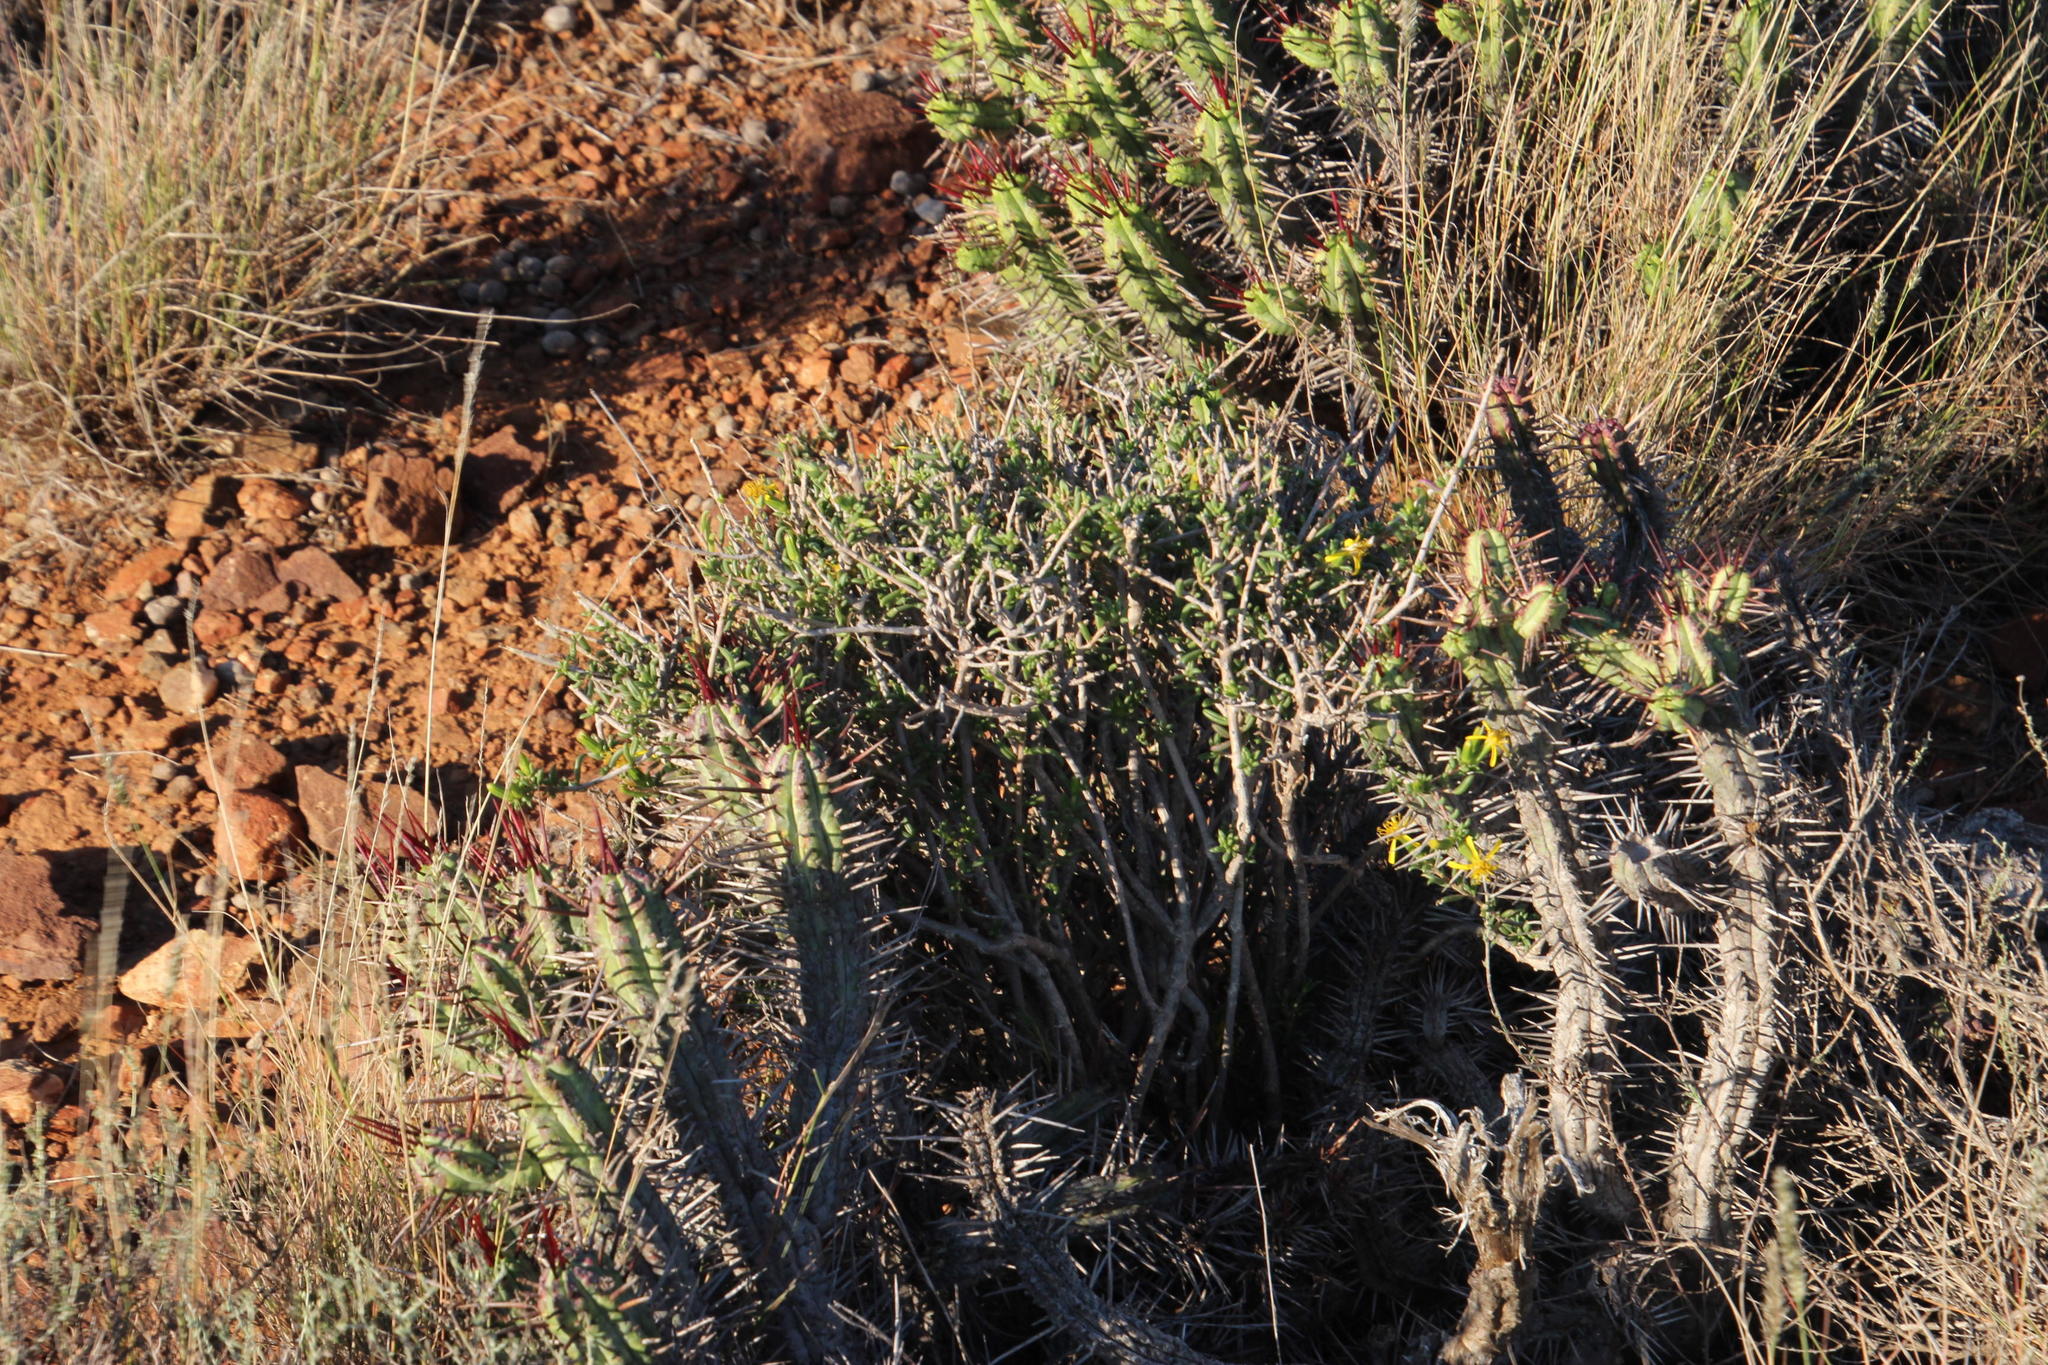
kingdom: Plantae
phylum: Tracheophyta
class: Magnoliopsida
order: Asterales
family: Asteraceae
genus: Senecio
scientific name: Senecio acutifolius
